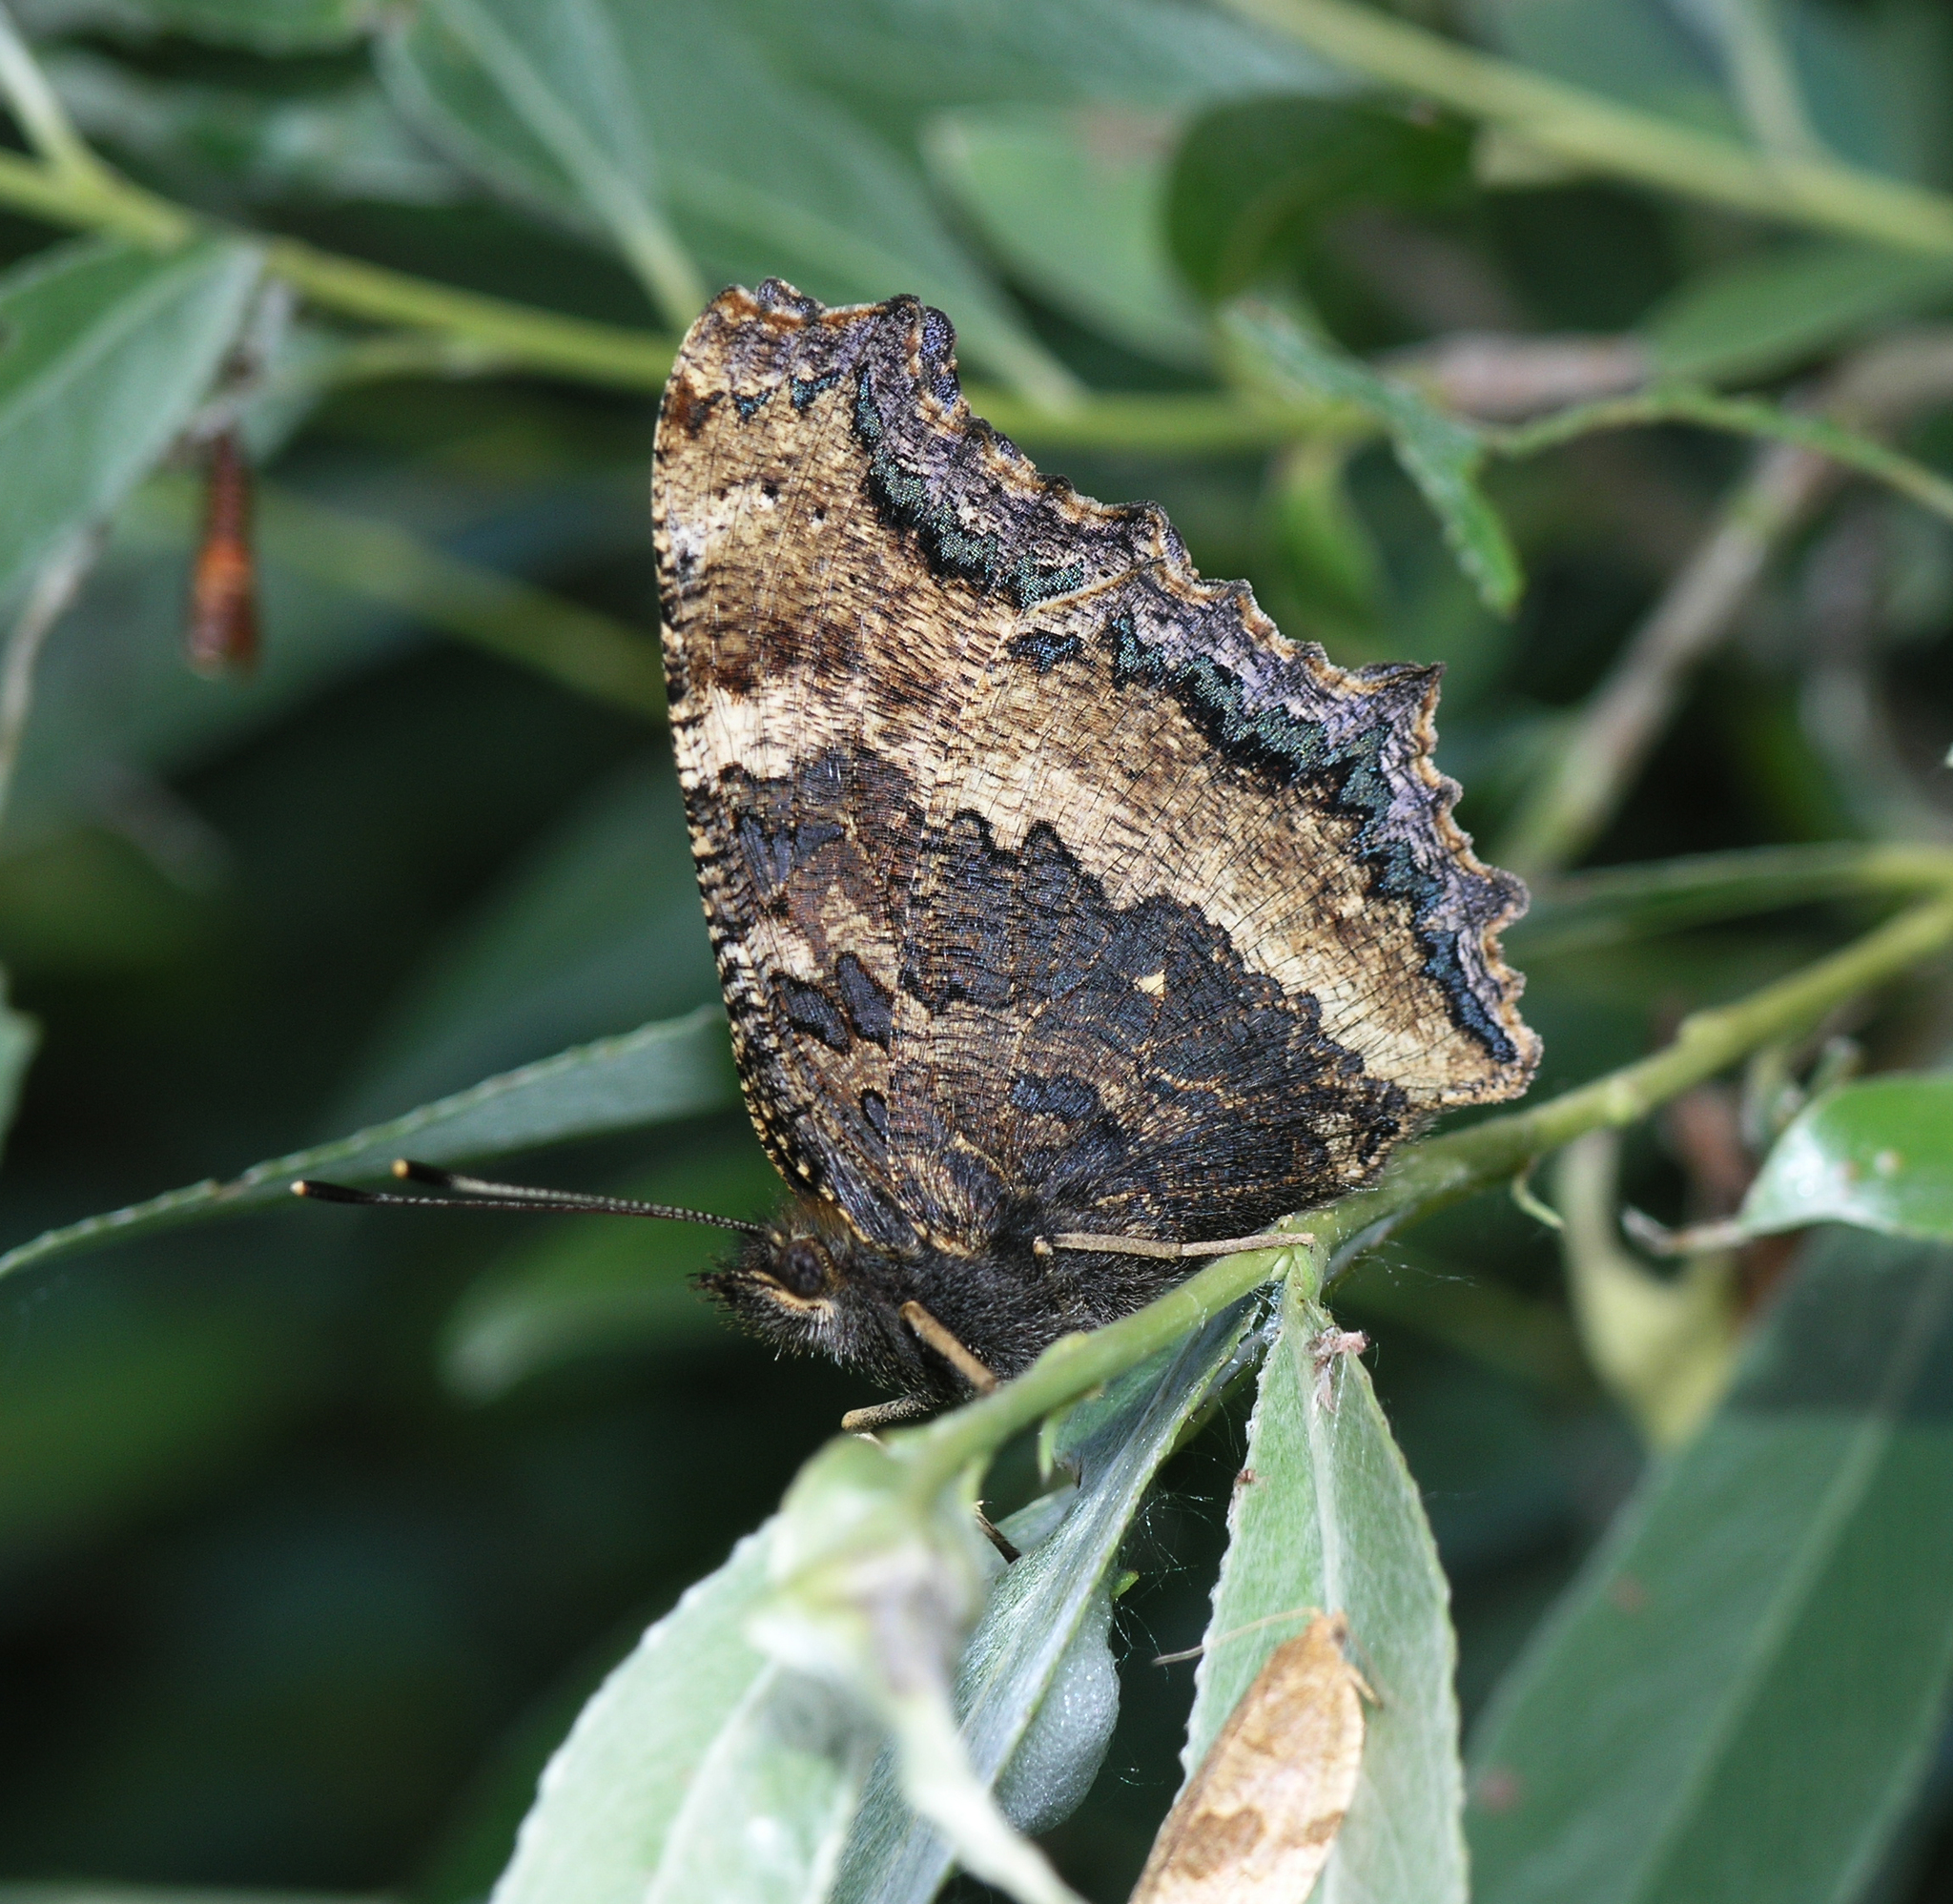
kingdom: Animalia
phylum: Arthropoda
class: Insecta
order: Lepidoptera
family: Nymphalidae
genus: Nymphalis
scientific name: Nymphalis xanthomelas
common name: Scarce tortoiseshell
